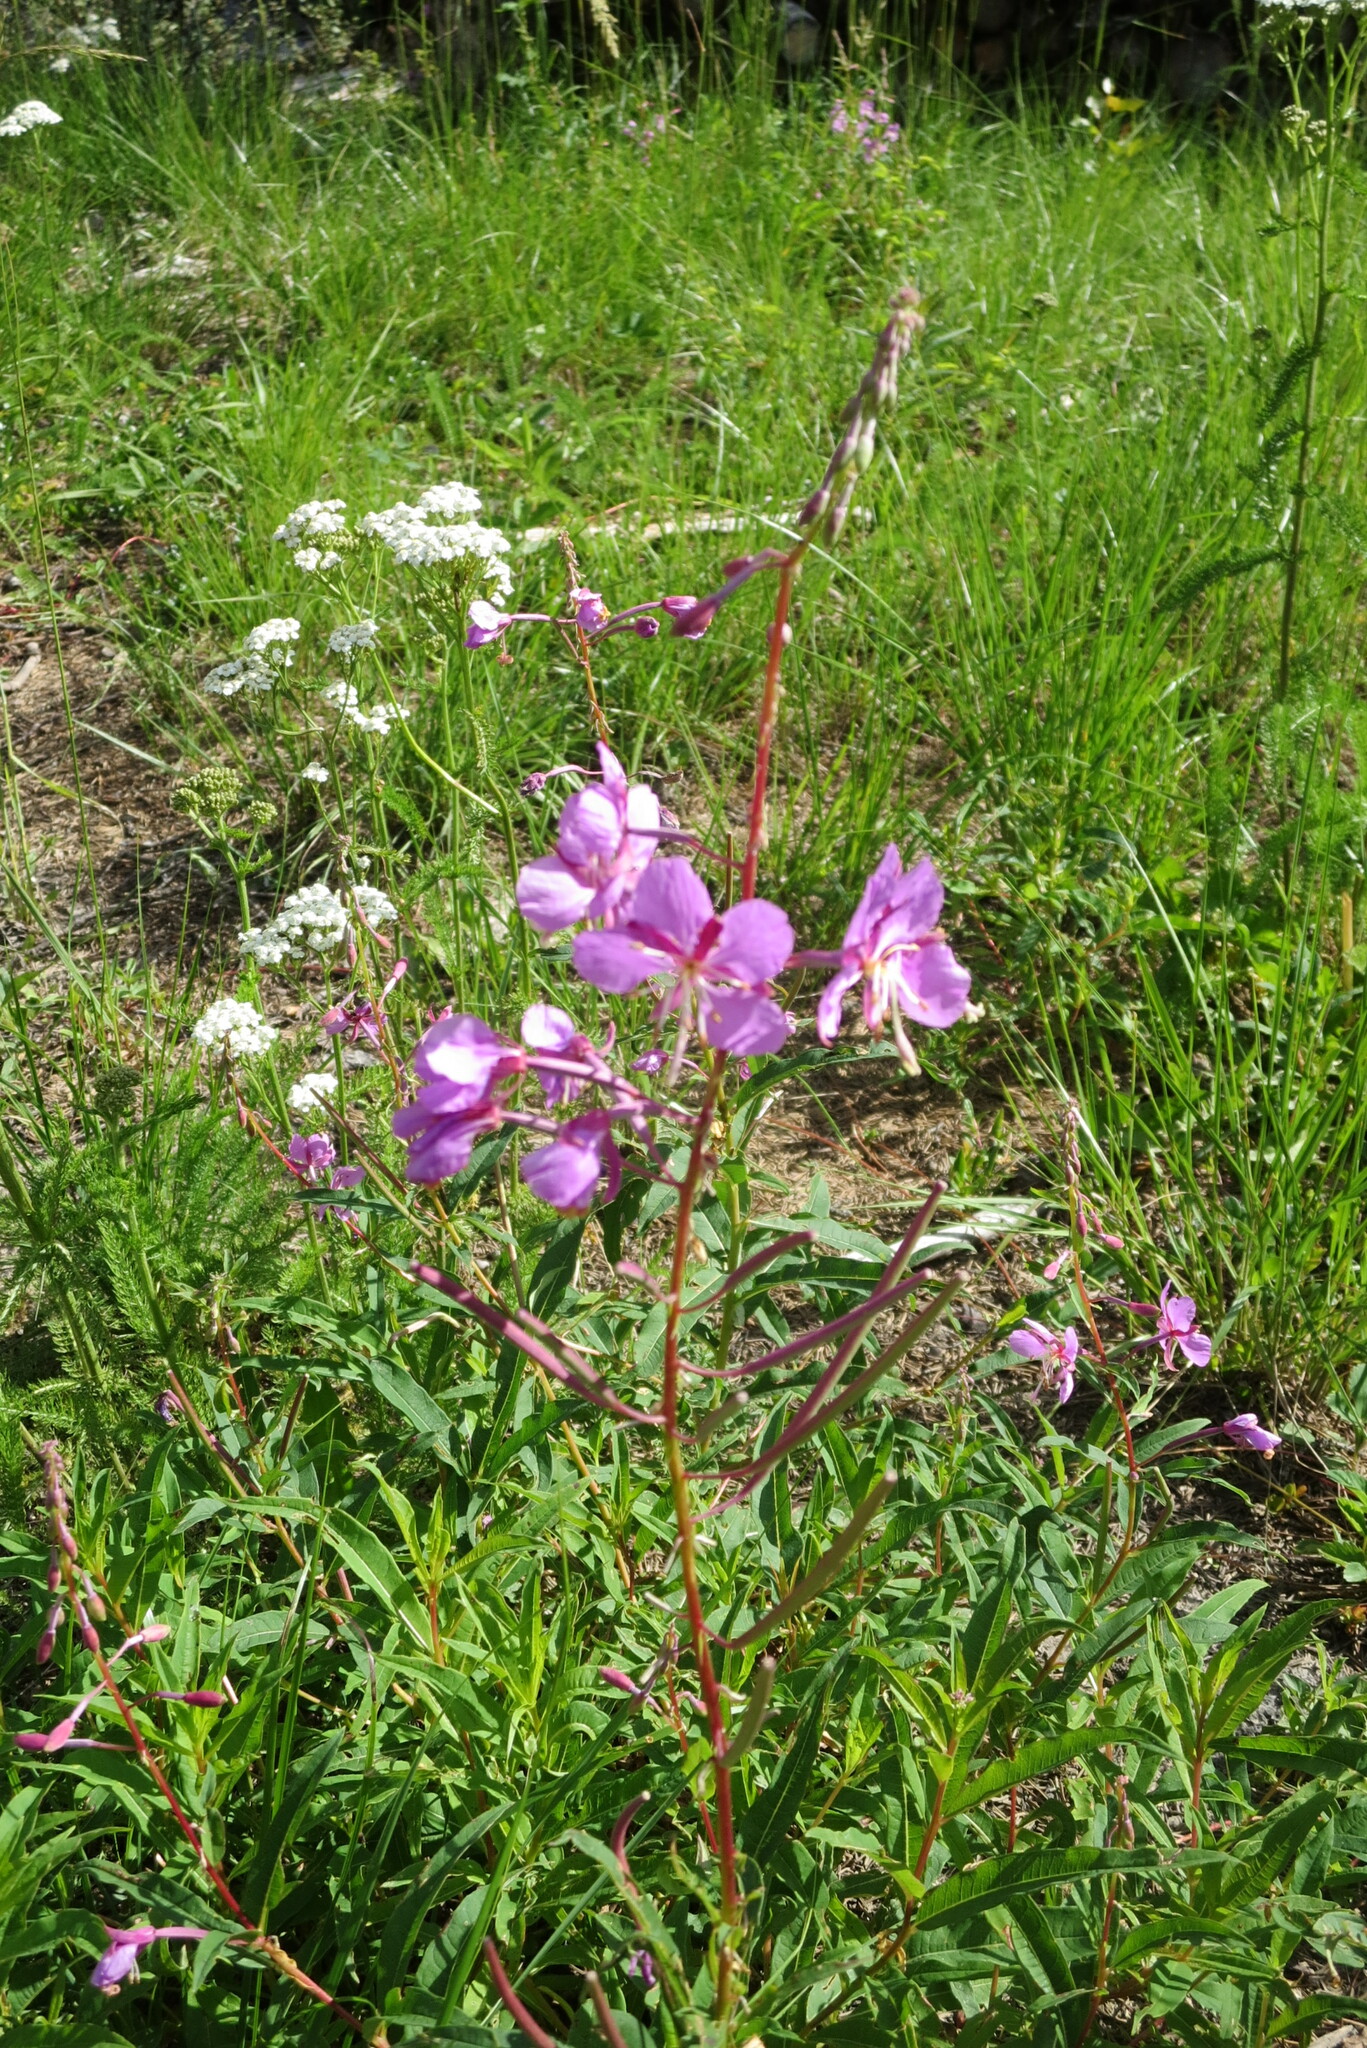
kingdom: Plantae
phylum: Tracheophyta
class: Magnoliopsida
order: Myrtales
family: Onagraceae
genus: Chamaenerion
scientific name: Chamaenerion angustifolium
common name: Fireweed
